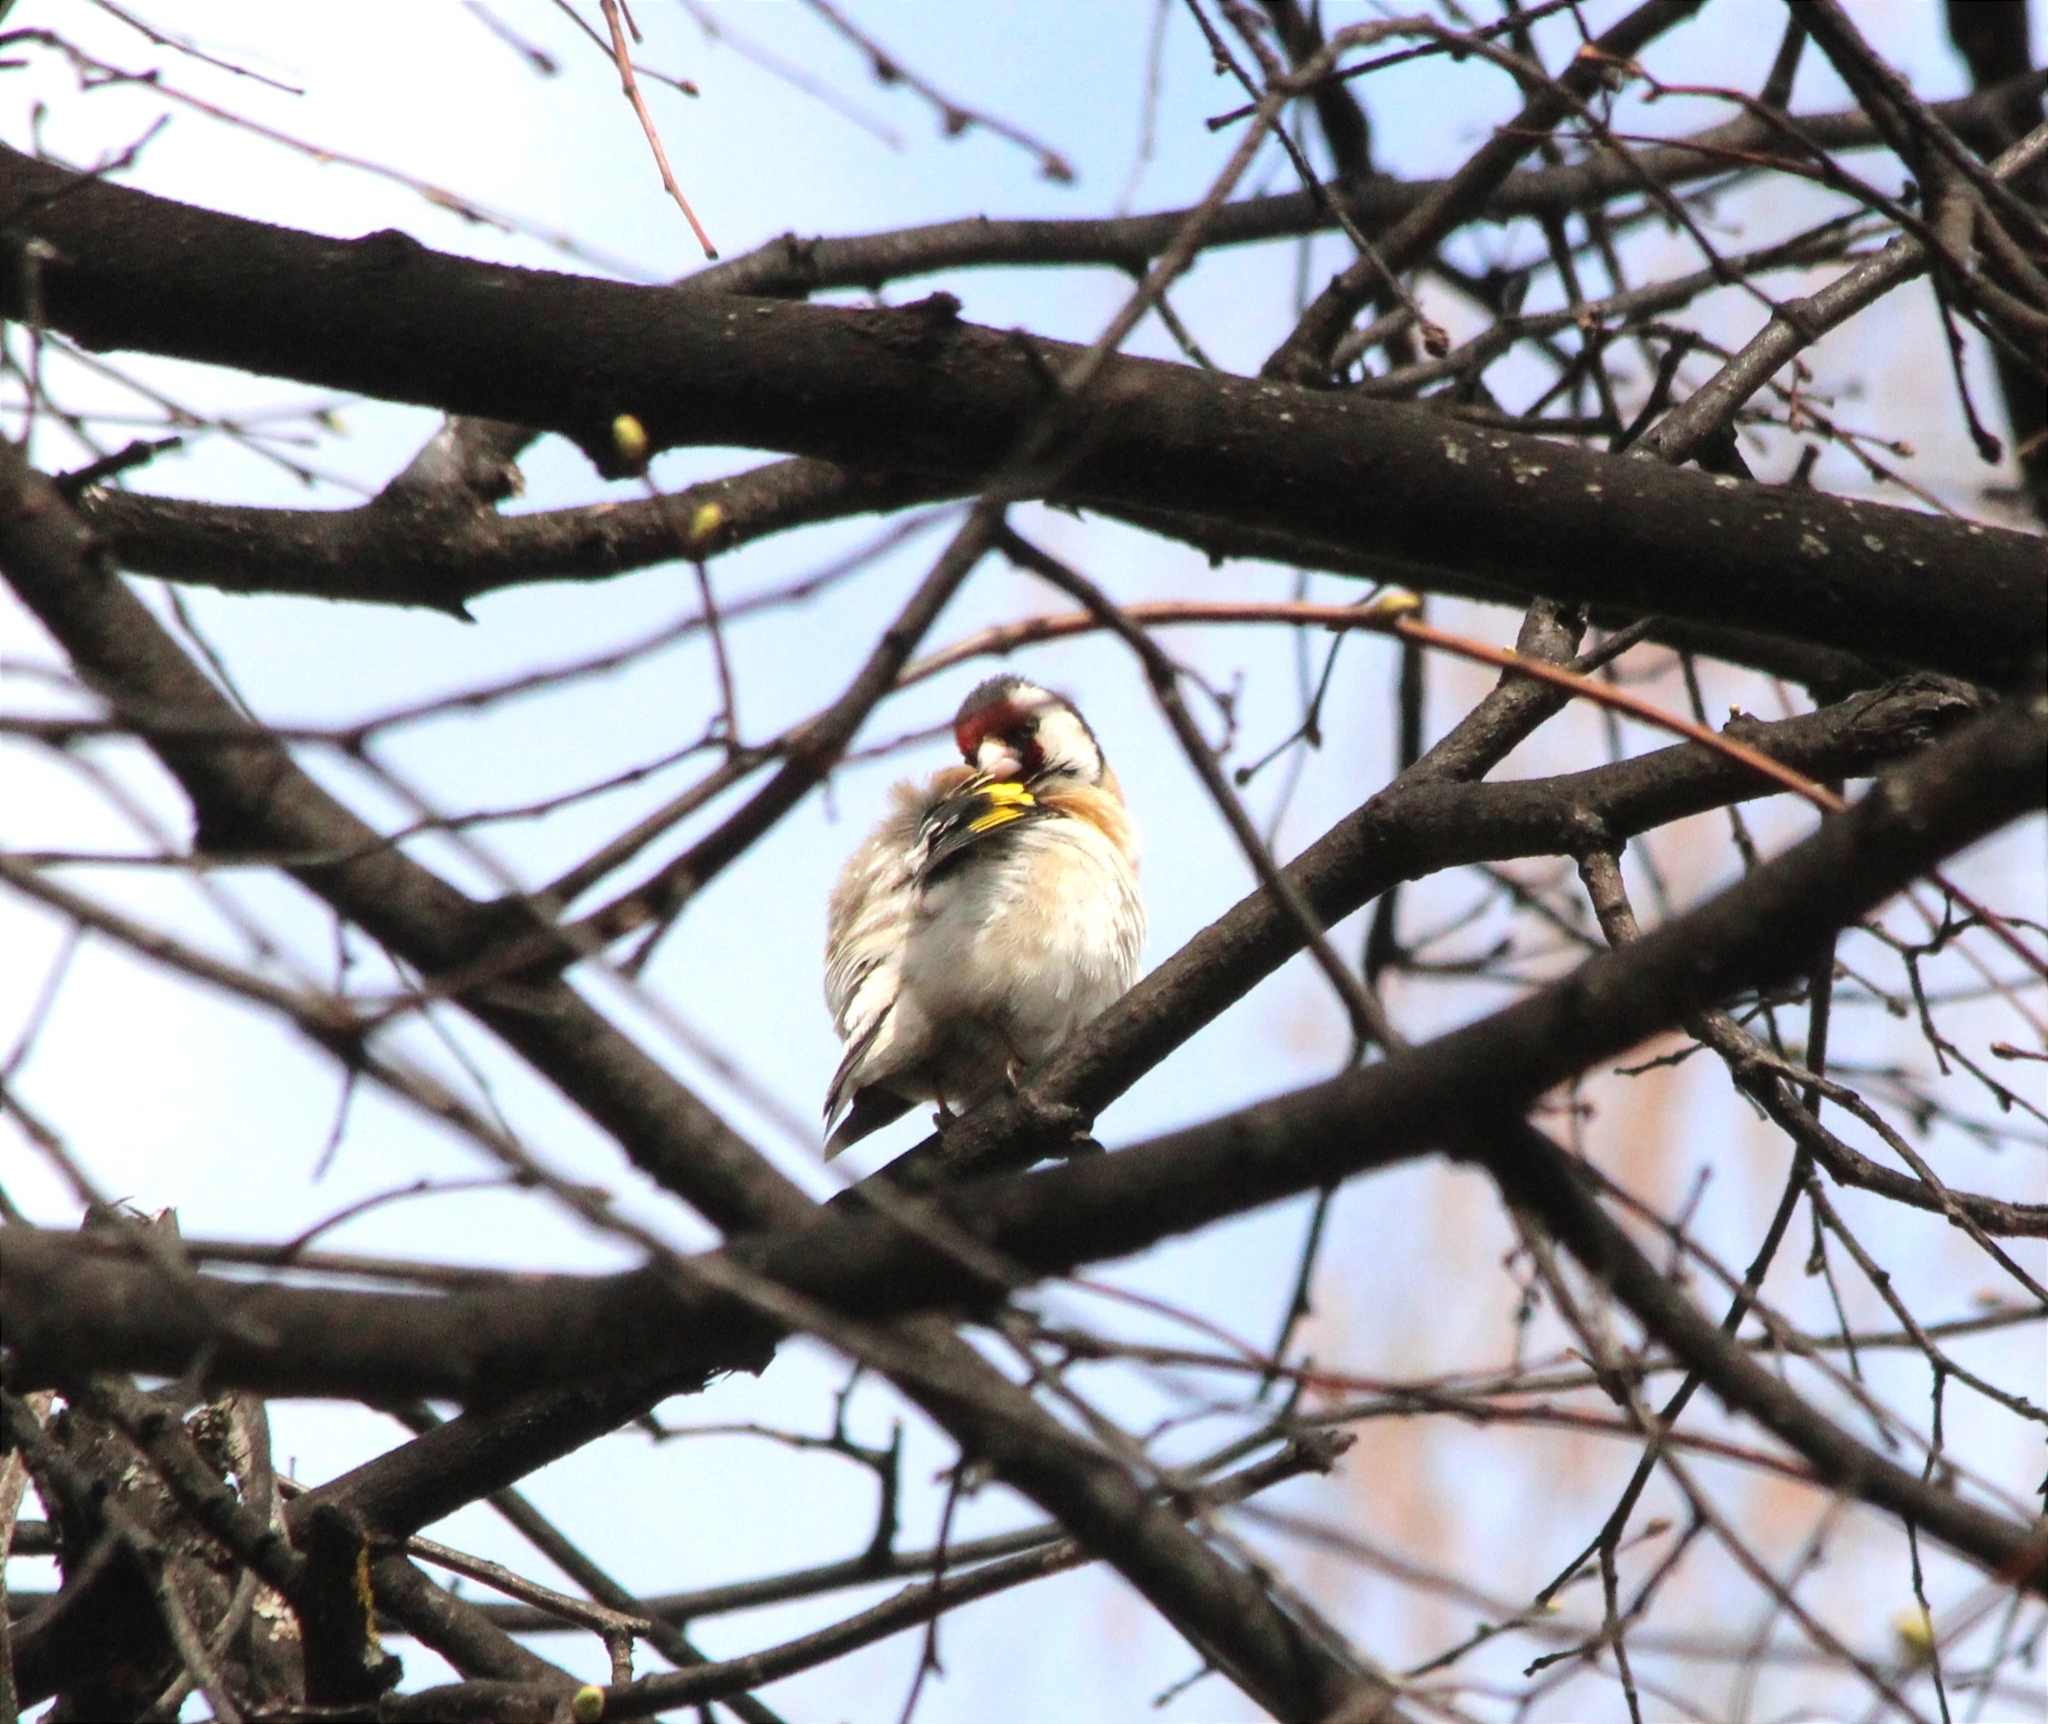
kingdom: Animalia
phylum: Chordata
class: Aves
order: Passeriformes
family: Fringillidae
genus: Carduelis
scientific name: Carduelis carduelis
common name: European goldfinch
